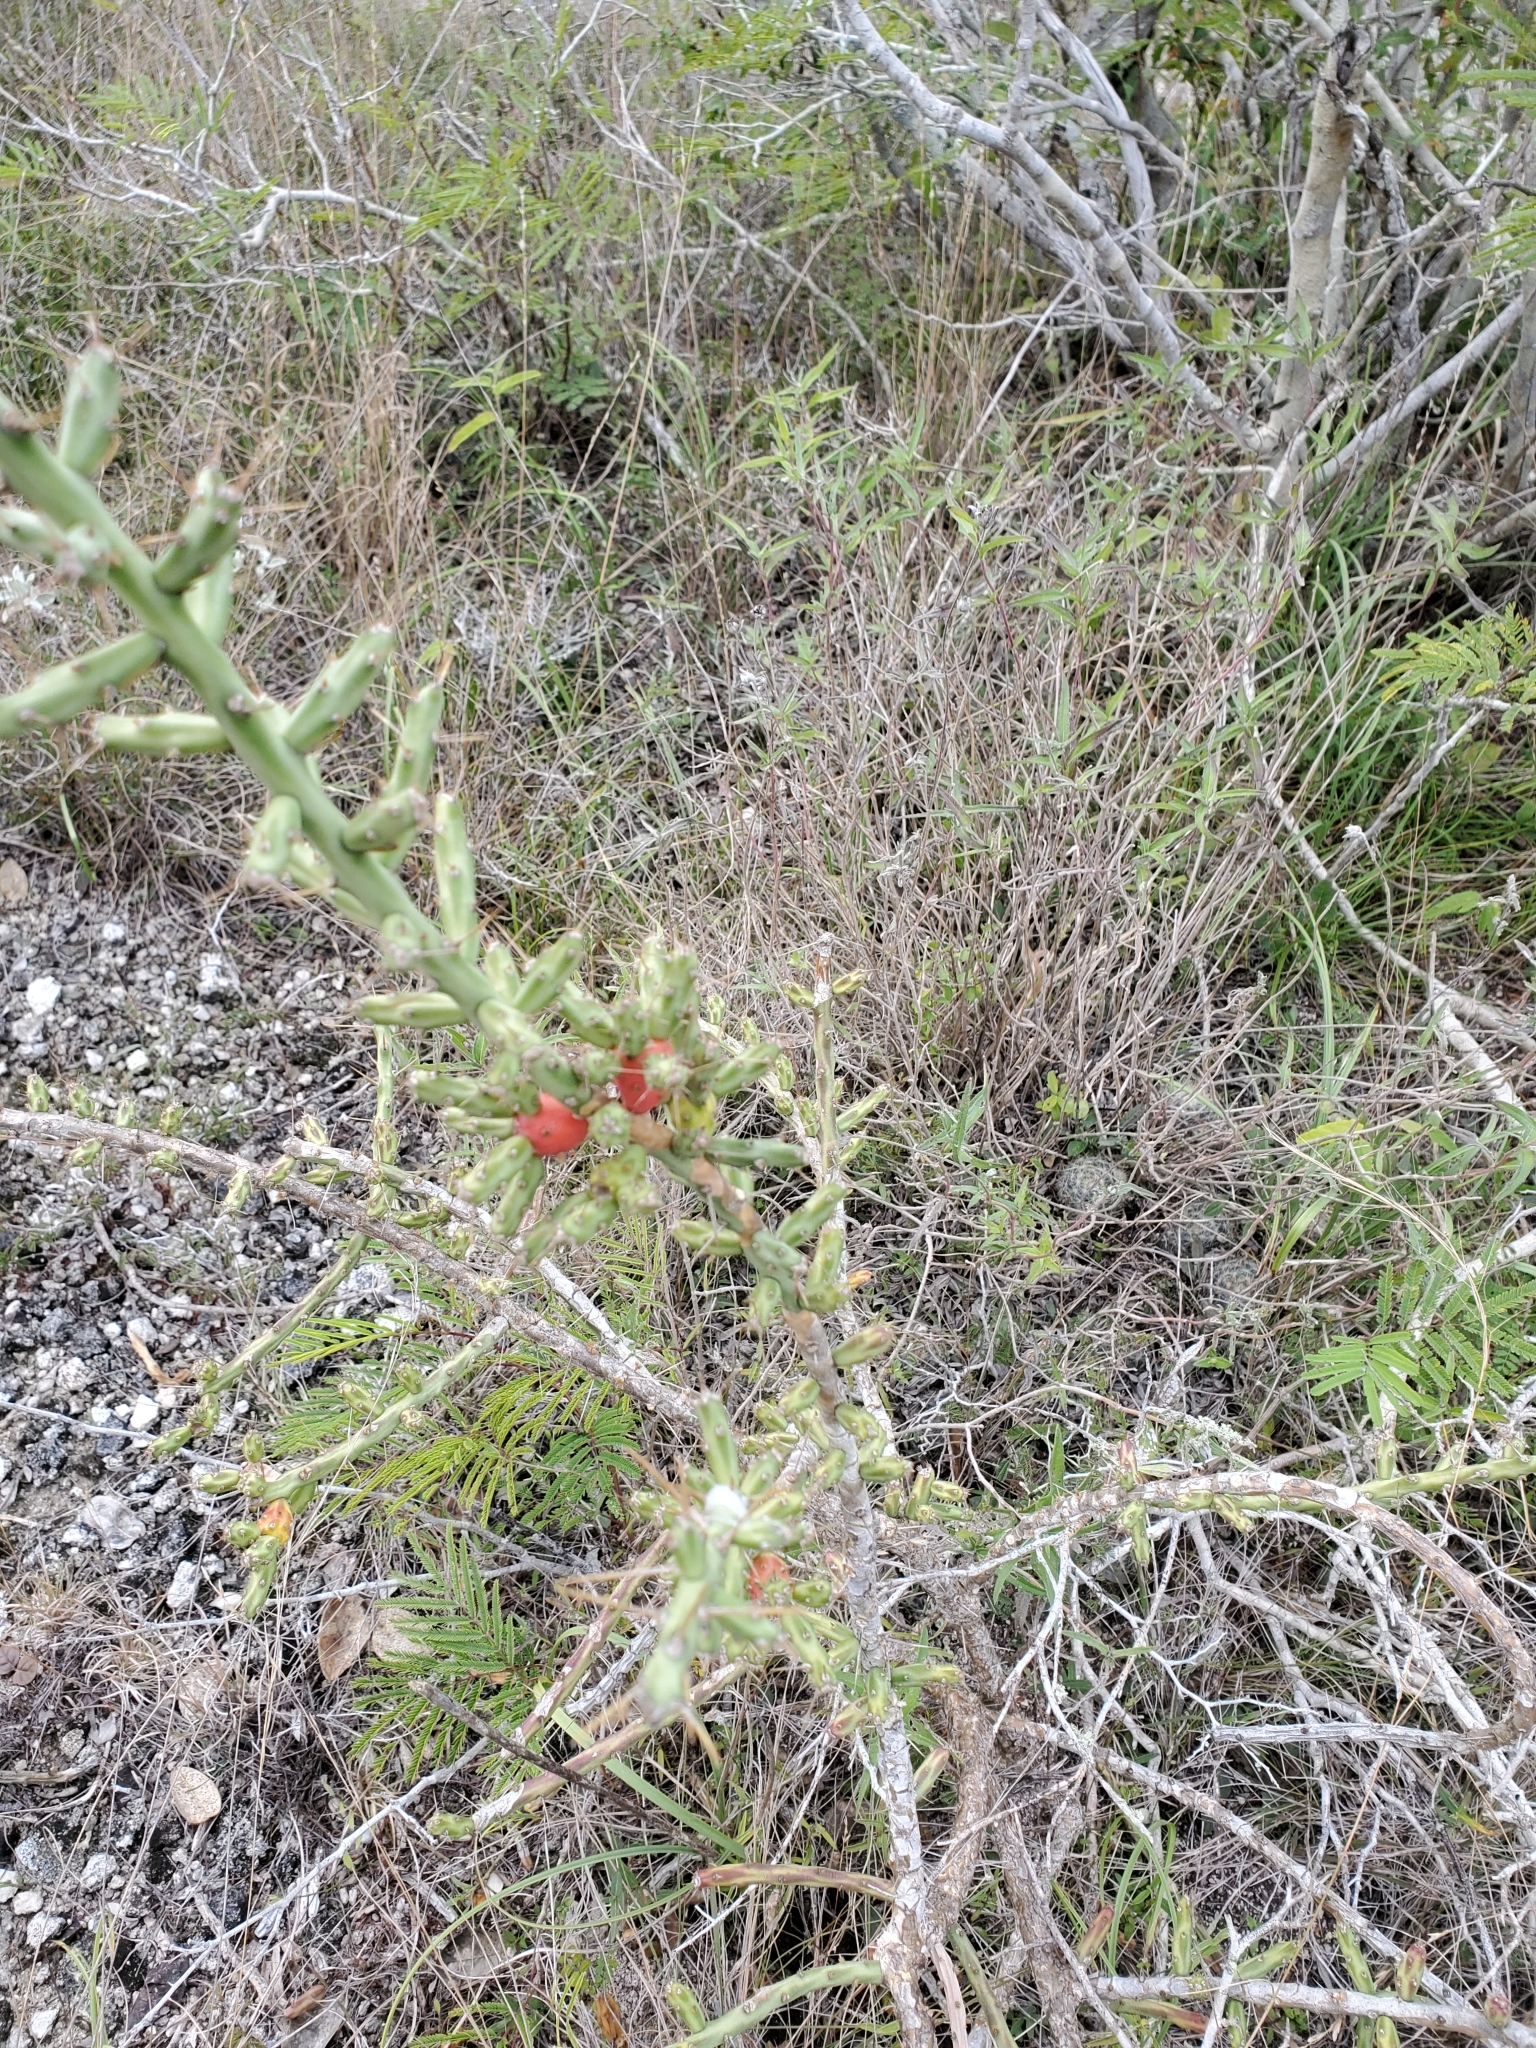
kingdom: Plantae
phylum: Tracheophyta
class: Magnoliopsida
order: Caryophyllales
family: Cactaceae
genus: Cylindropuntia
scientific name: Cylindropuntia leptocaulis
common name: Christmas cactus
